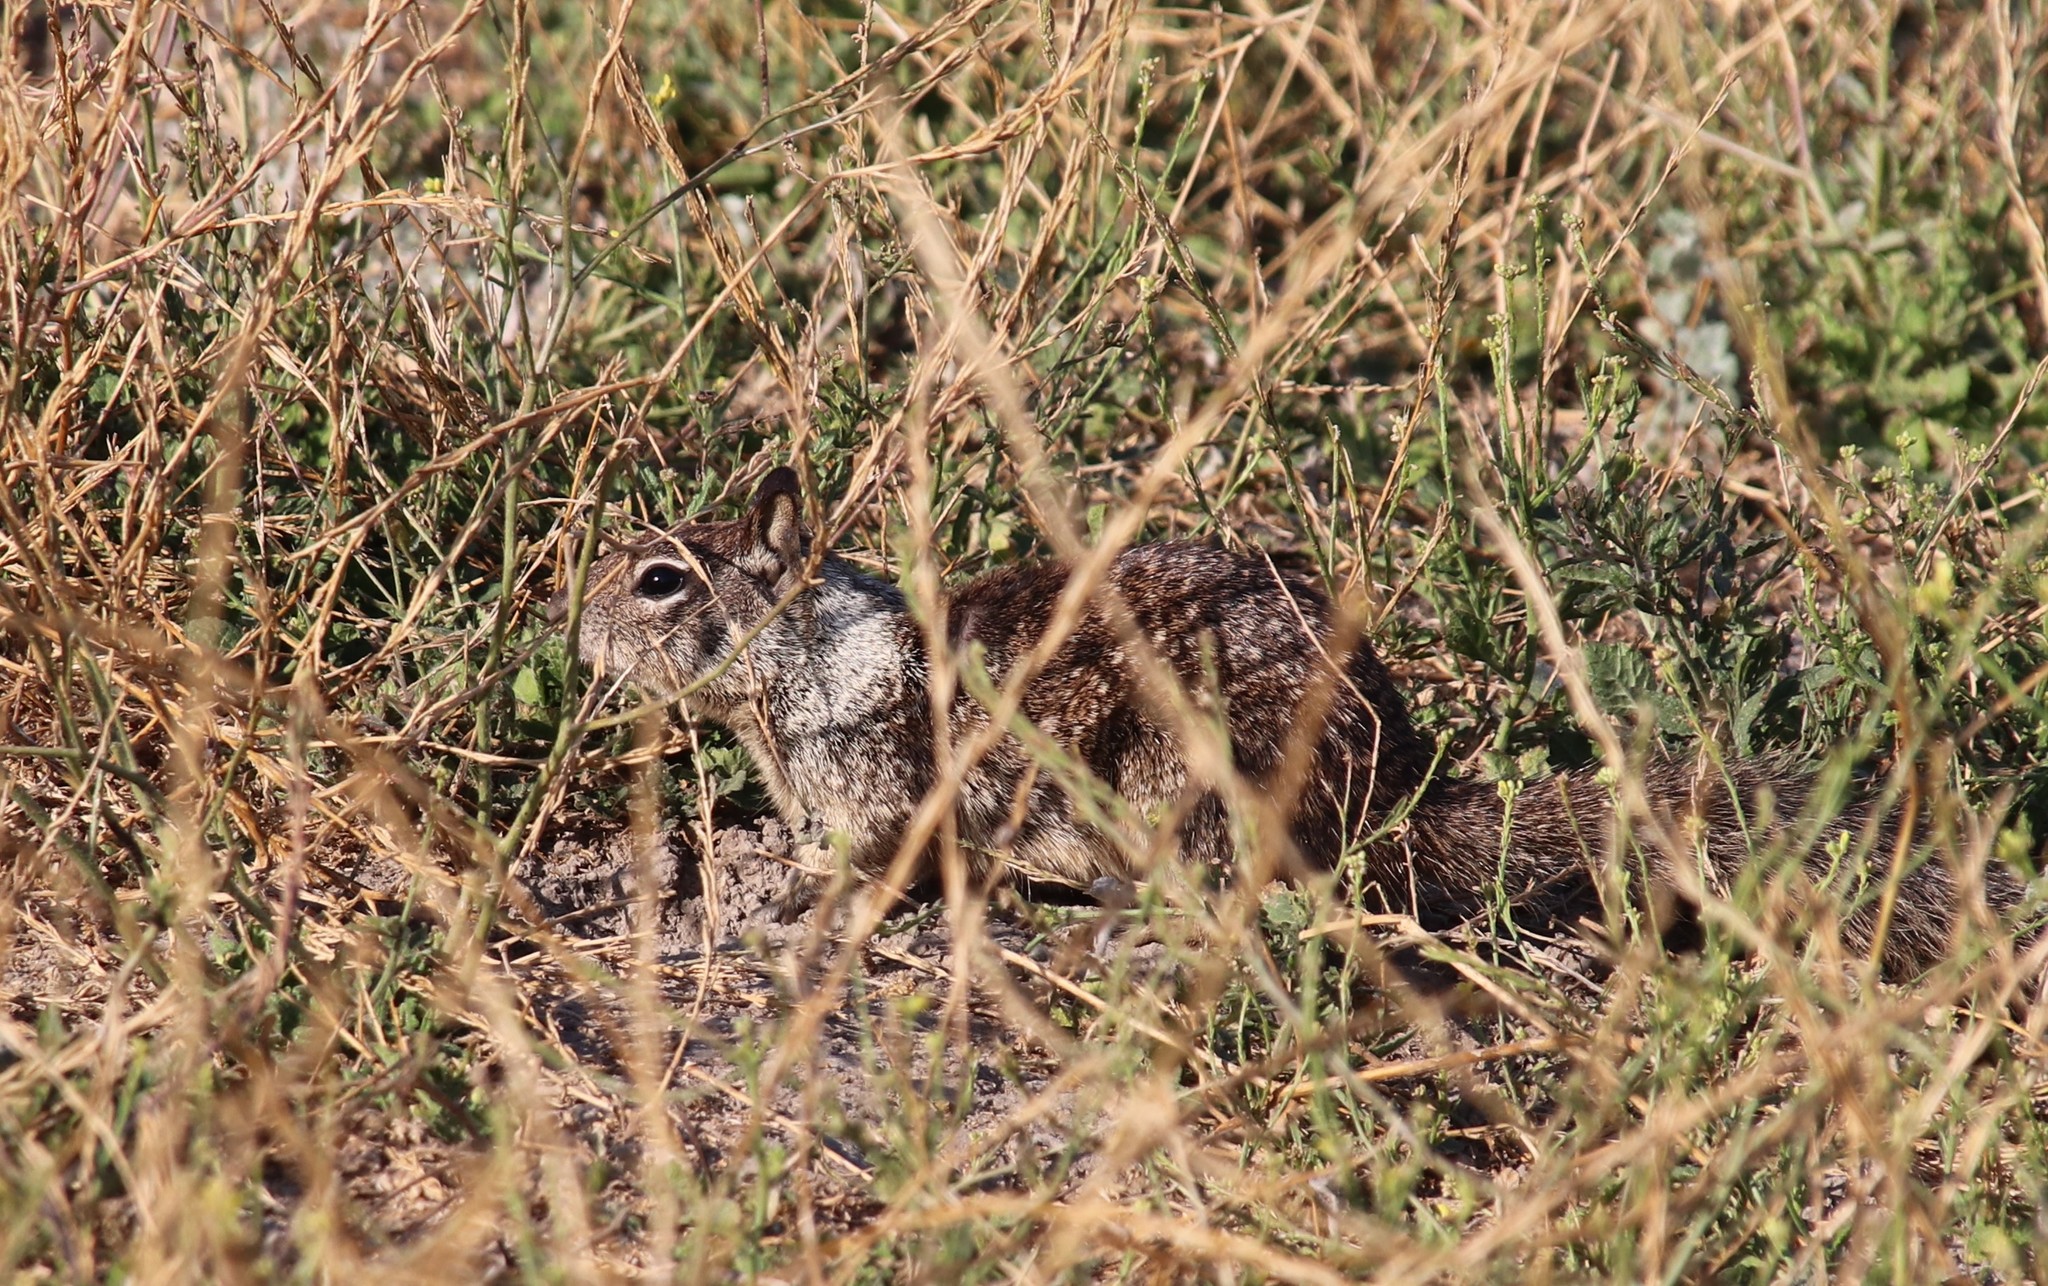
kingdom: Animalia
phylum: Chordata
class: Mammalia
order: Rodentia
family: Sciuridae
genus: Otospermophilus
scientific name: Otospermophilus beecheyi
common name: California ground squirrel
